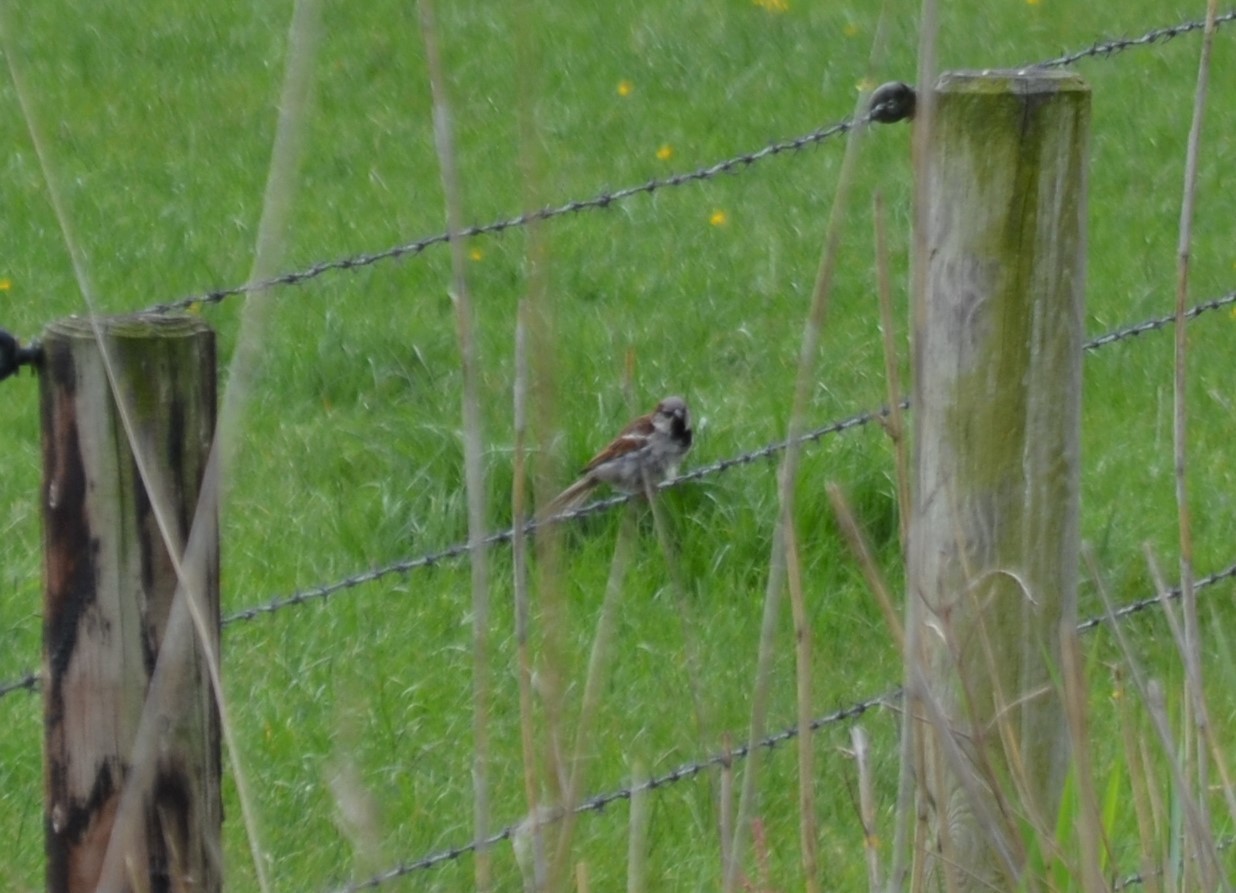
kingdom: Animalia
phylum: Chordata
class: Aves
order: Passeriformes
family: Passeridae
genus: Passer
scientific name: Passer domesticus
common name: House sparrow
